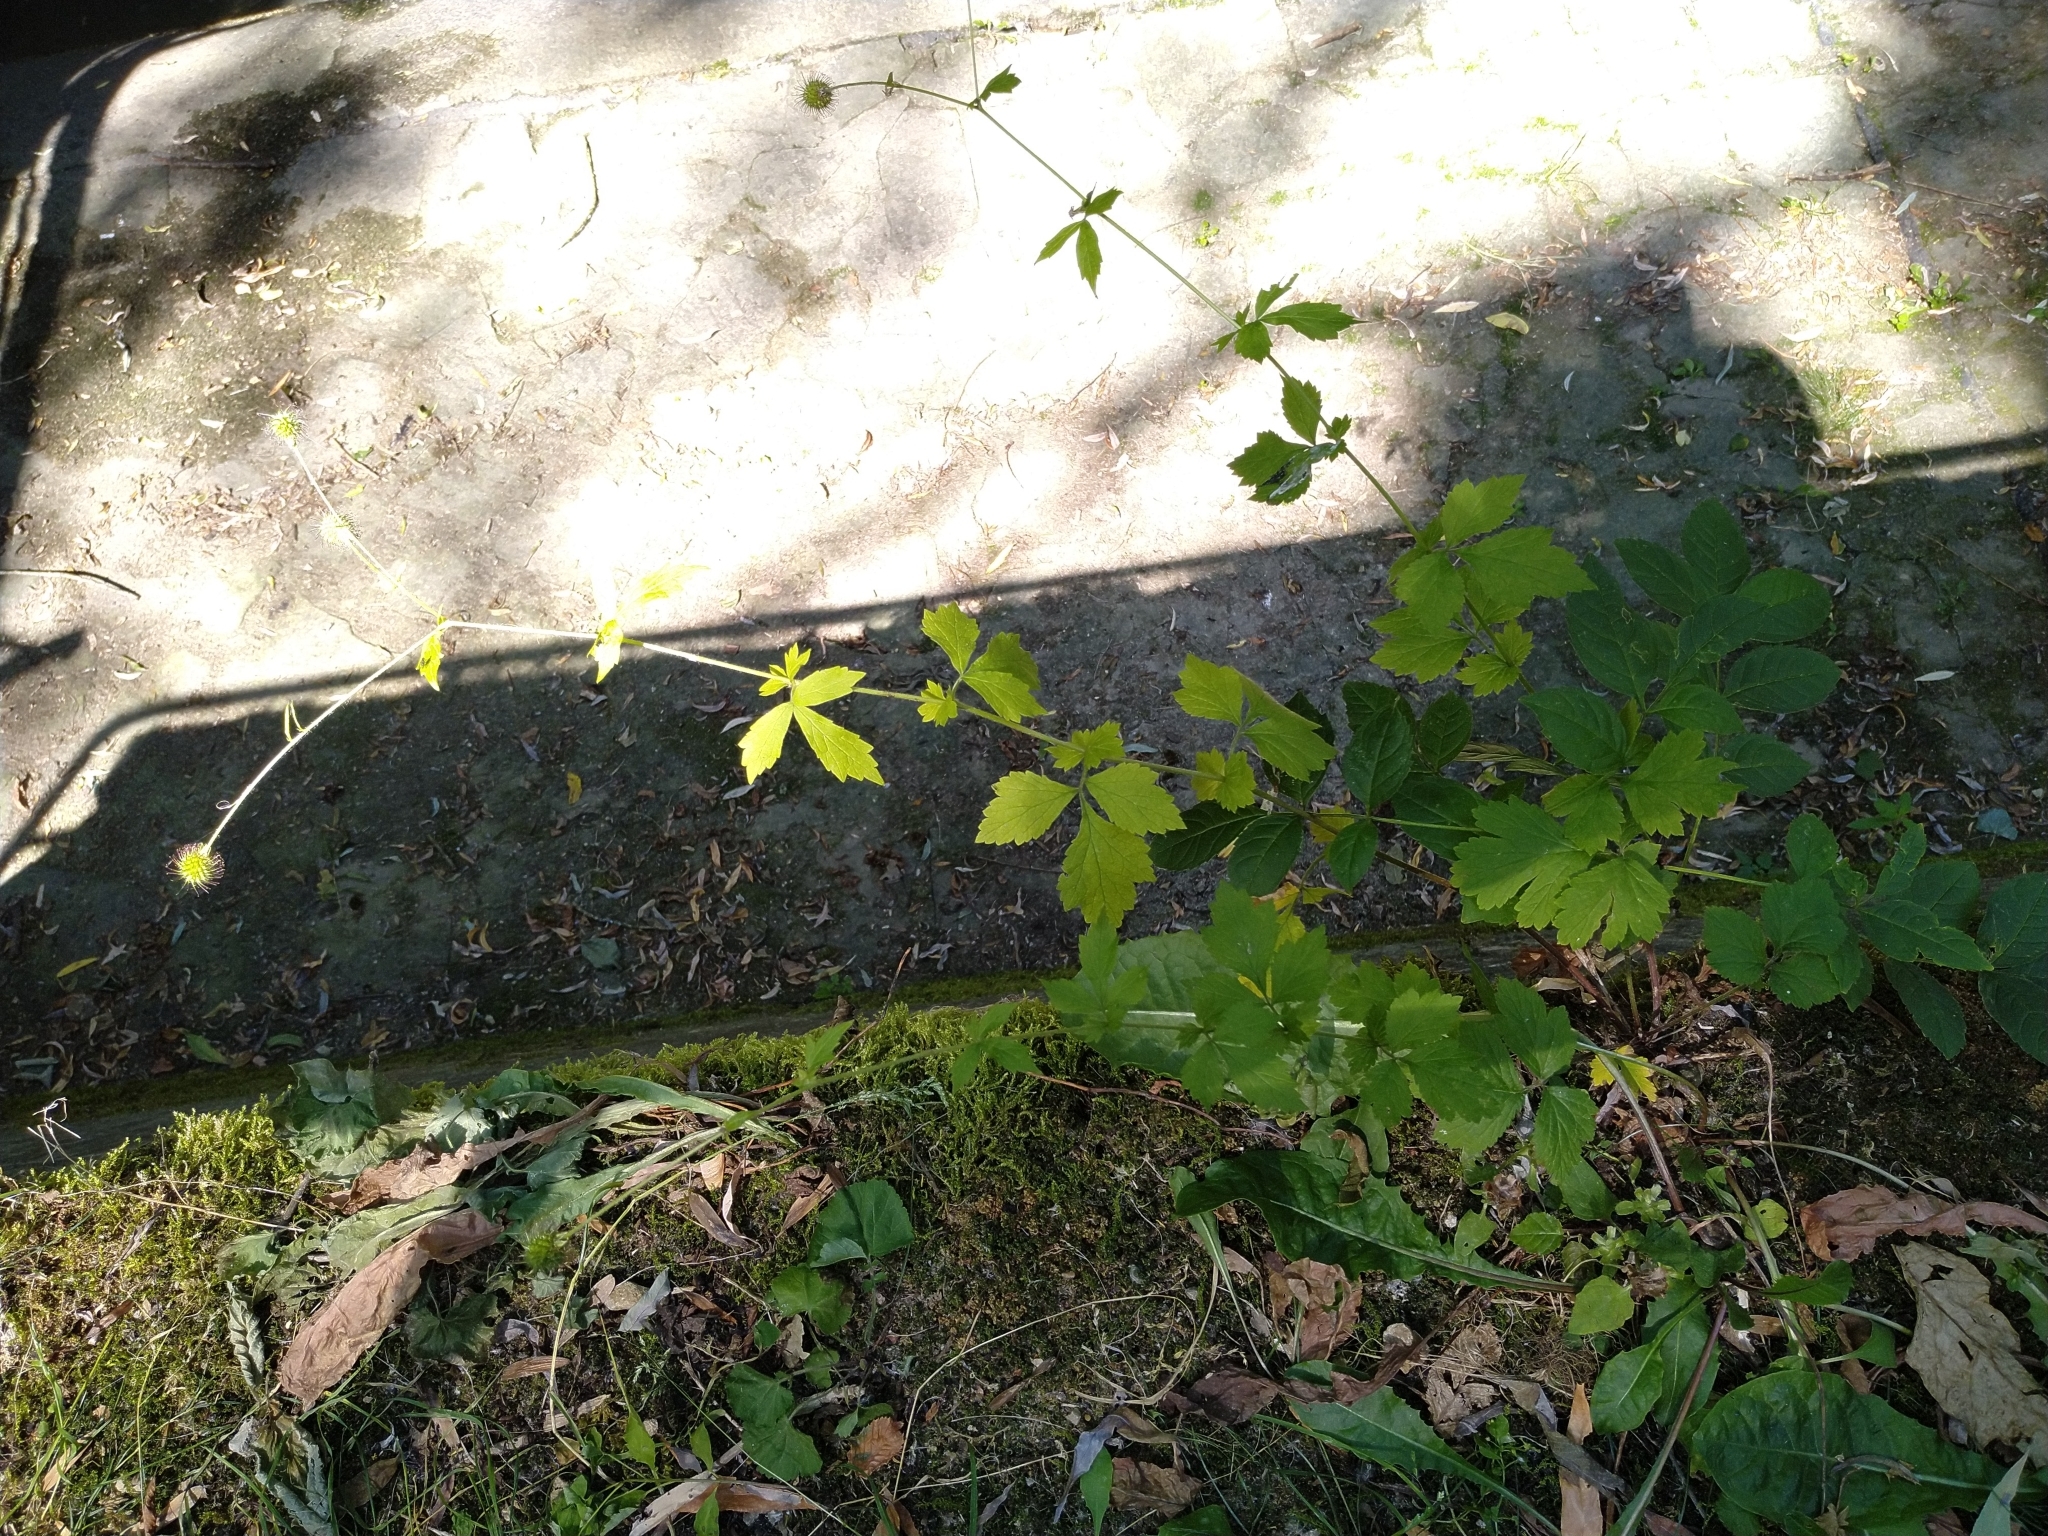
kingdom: Plantae
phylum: Tracheophyta
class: Magnoliopsida
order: Rosales
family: Rosaceae
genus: Geum
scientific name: Geum urbanum
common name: Wood avens
